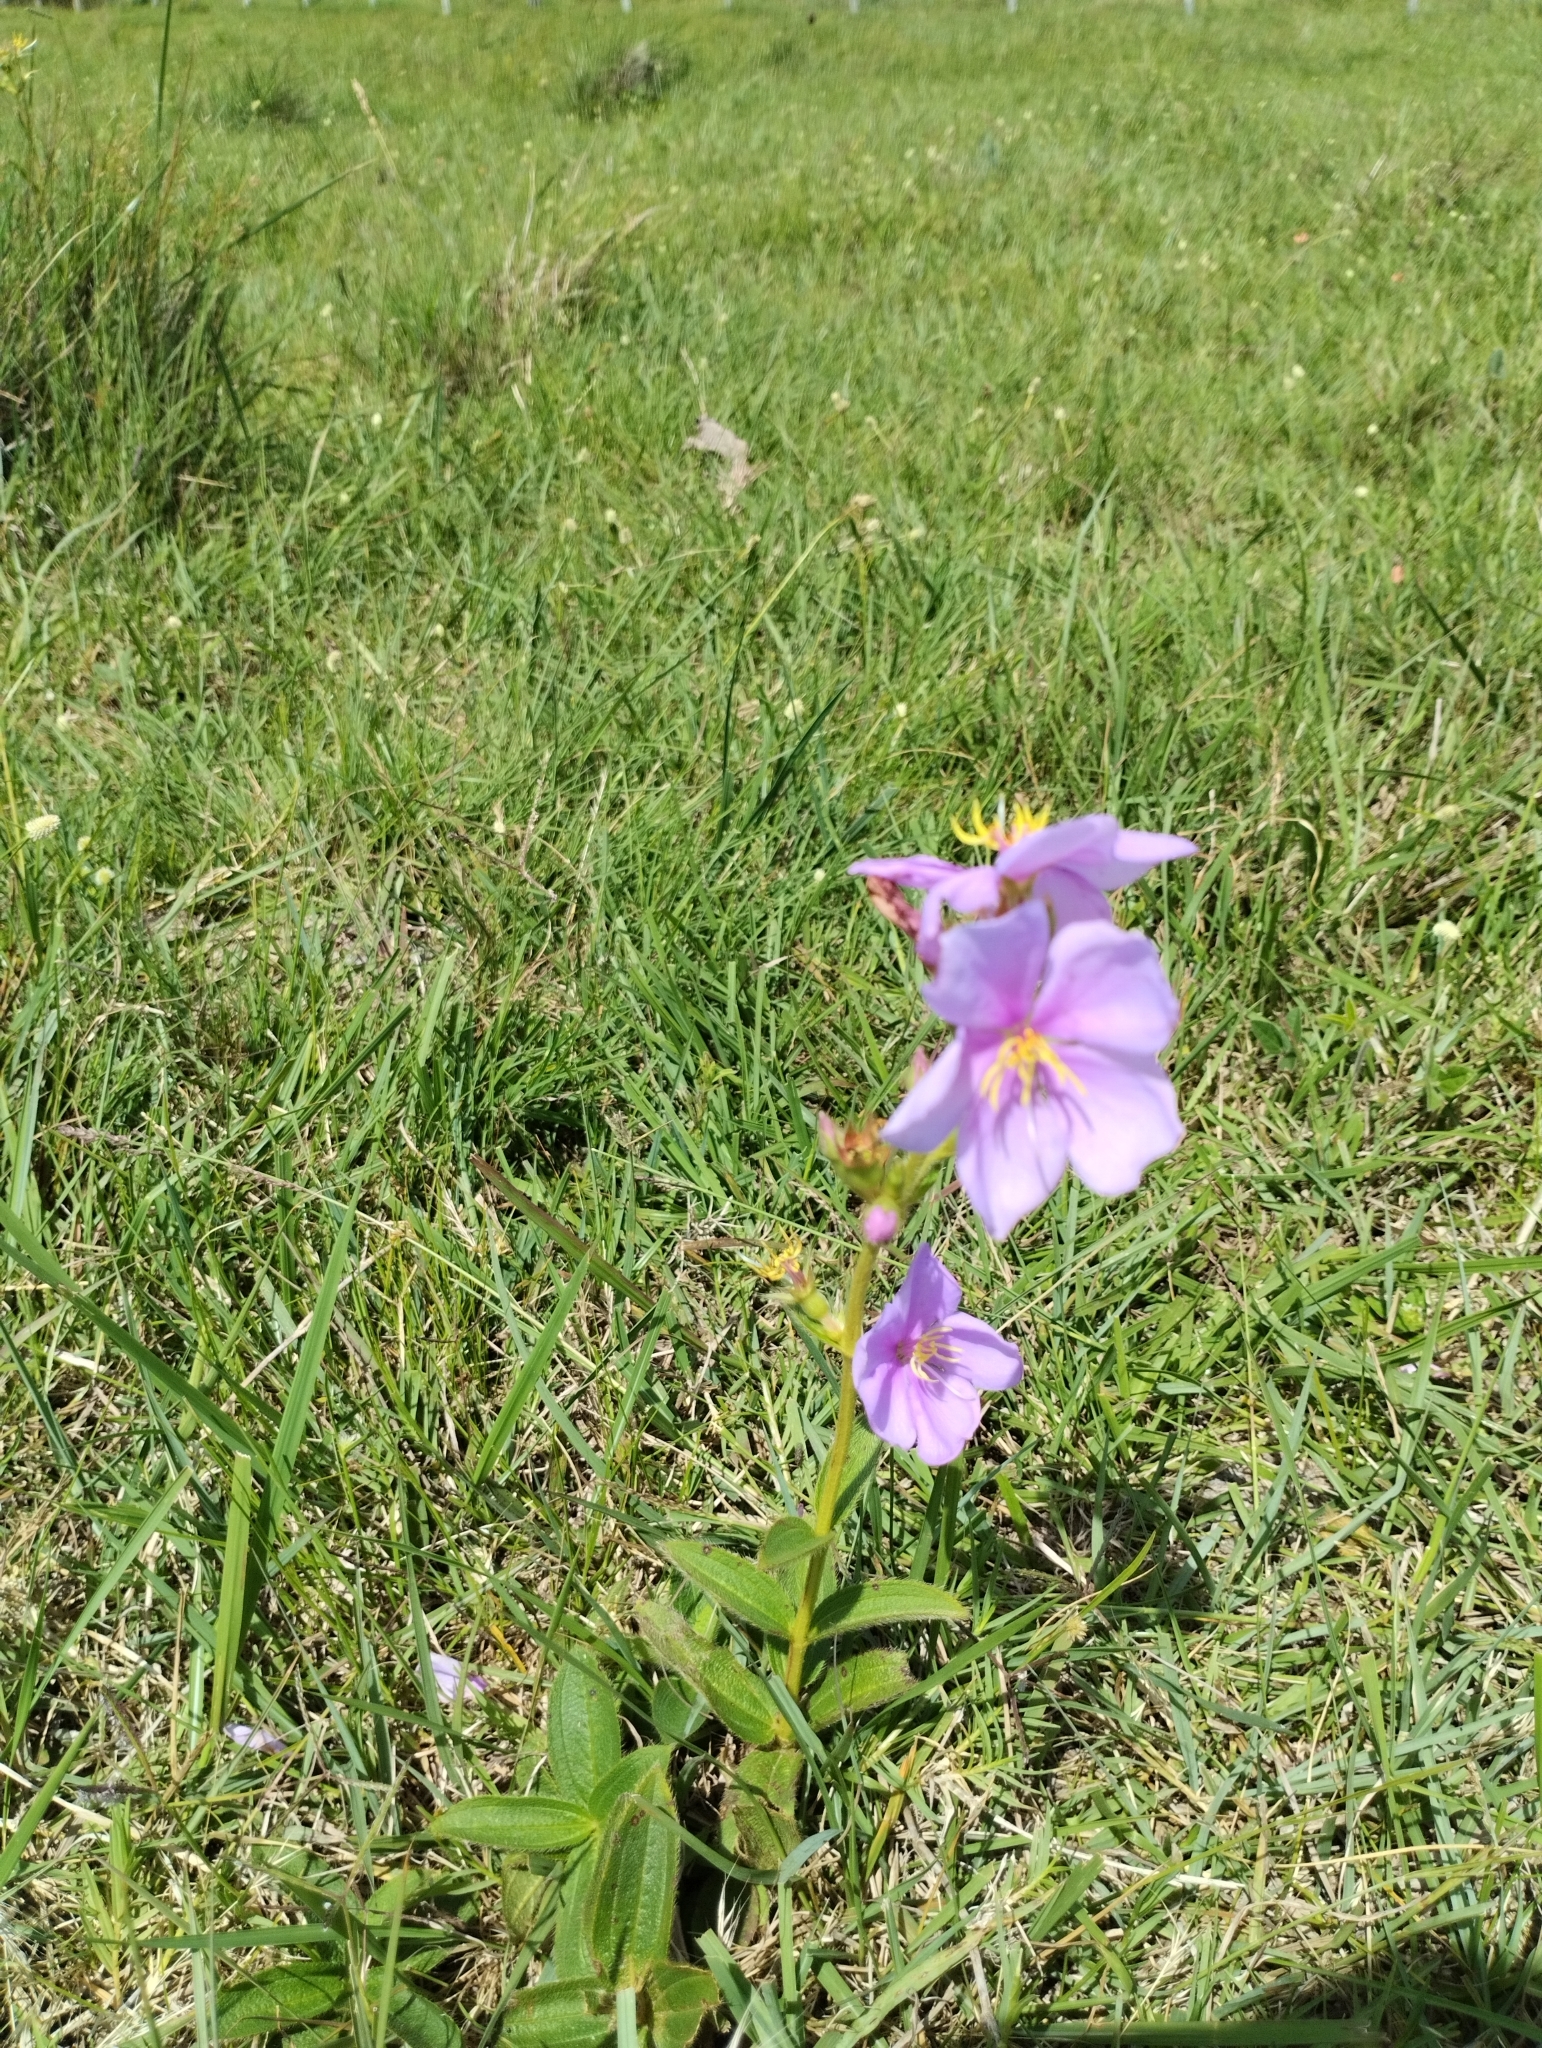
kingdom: Plantae
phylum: Tracheophyta
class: Magnoliopsida
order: Myrtales
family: Melastomataceae
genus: Chaetogastra
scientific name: Chaetogastra gracilis
